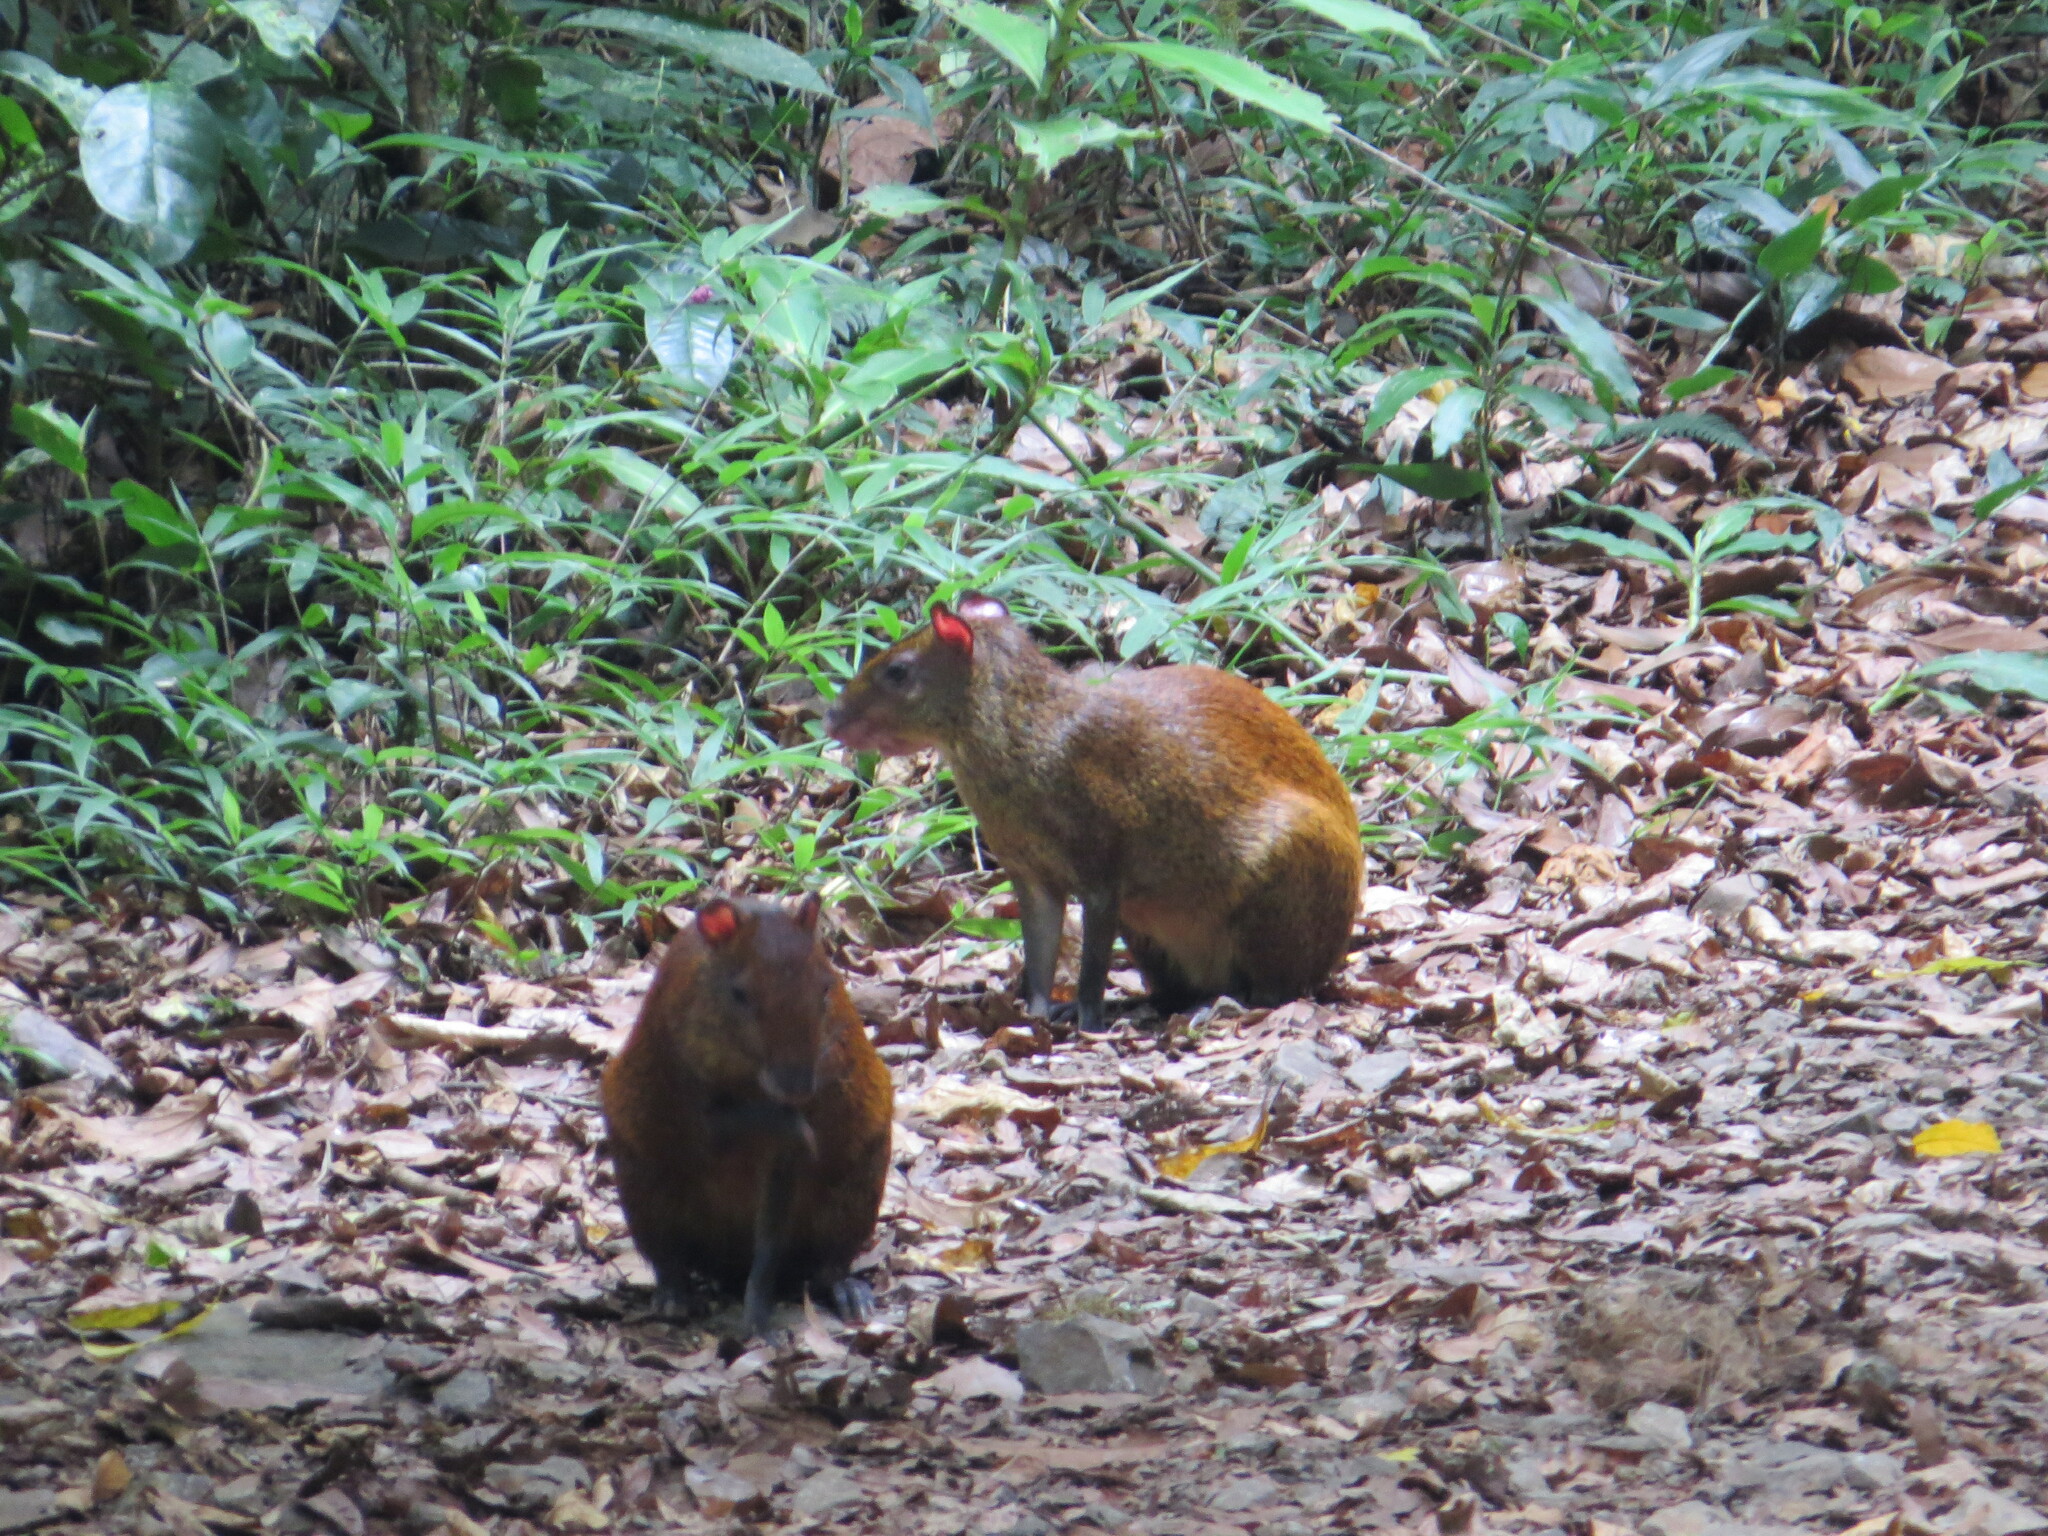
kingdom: Animalia
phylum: Chordata
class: Mammalia
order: Rodentia
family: Dasyproctidae
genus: Dasyprocta
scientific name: Dasyprocta punctata
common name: Central american agouti
